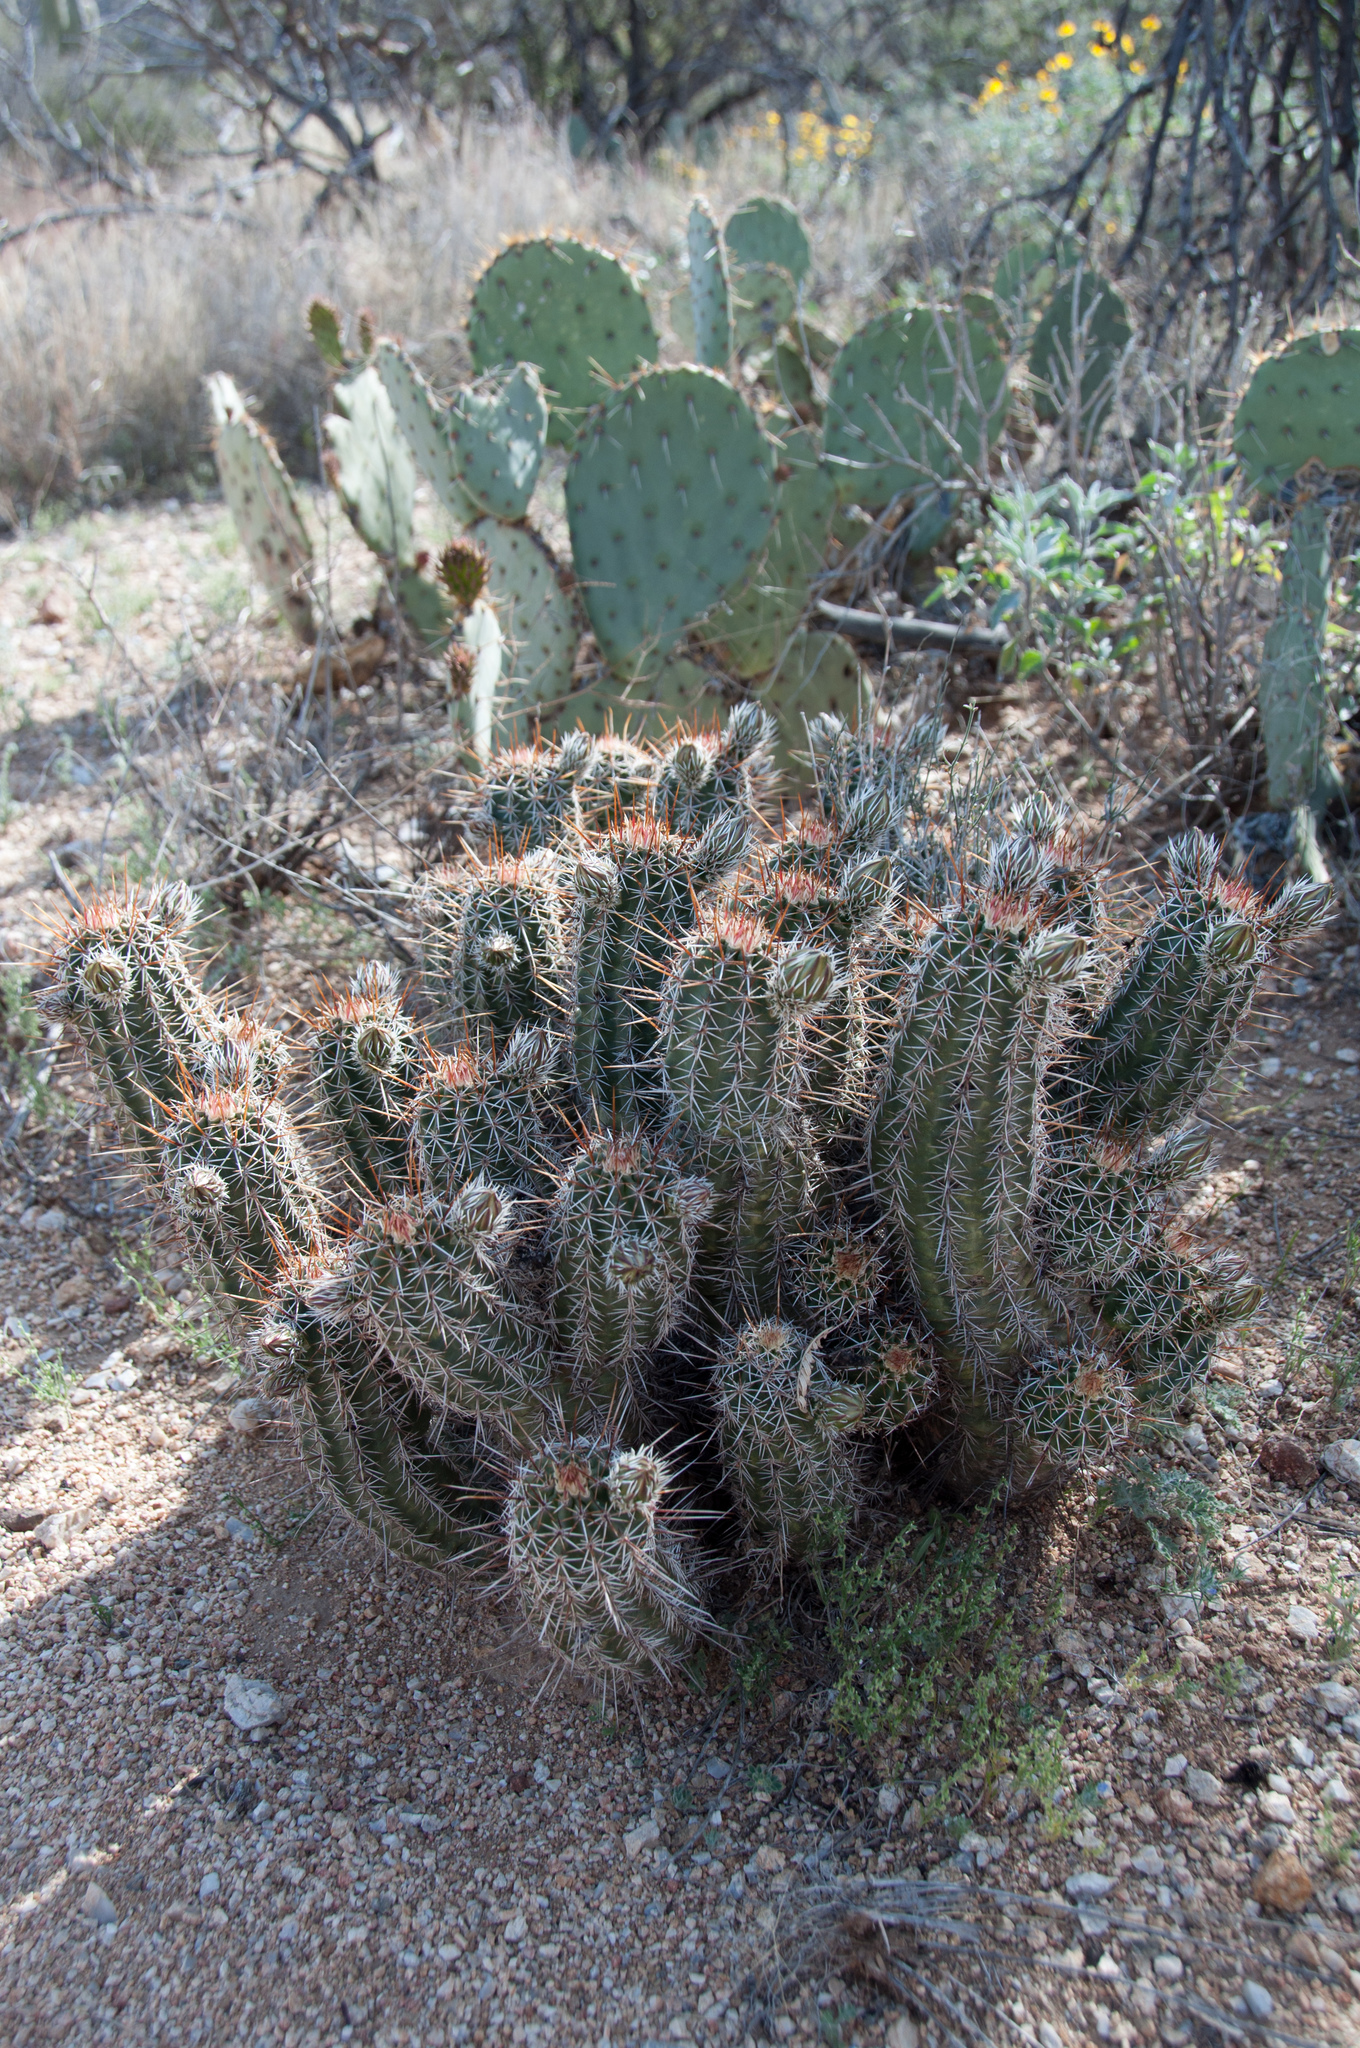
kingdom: Plantae
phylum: Tracheophyta
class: Magnoliopsida
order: Caryophyllales
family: Cactaceae
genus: Echinocereus
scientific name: Echinocereus fasciculatus
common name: Bundle hedgehog
